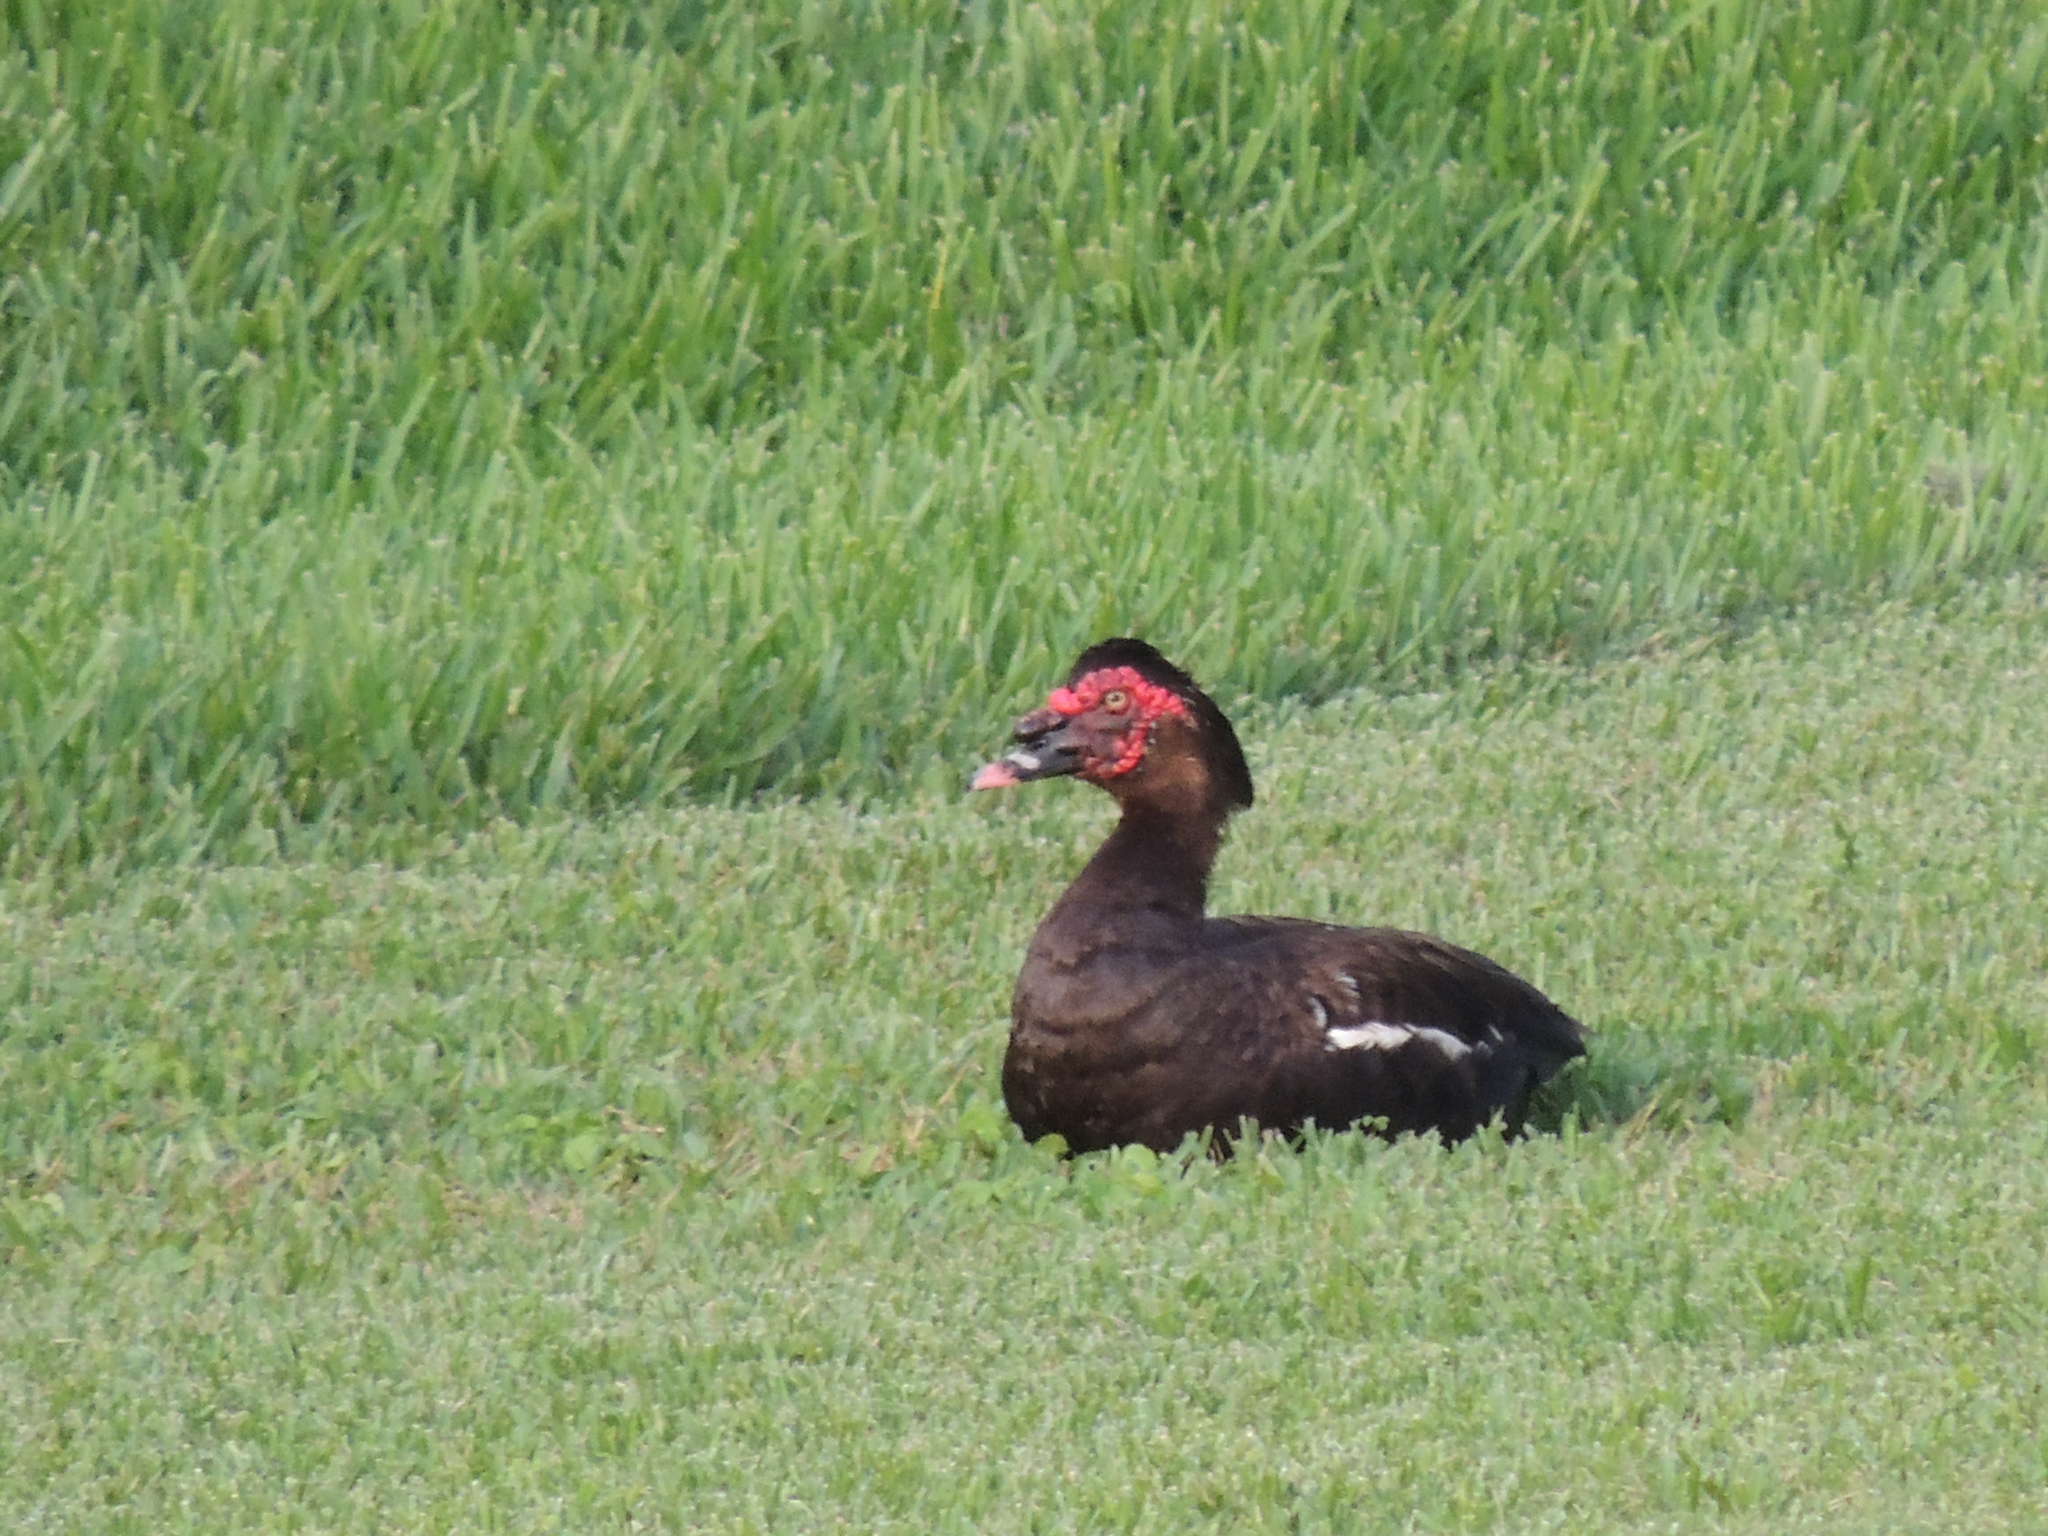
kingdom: Animalia
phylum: Chordata
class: Aves
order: Anseriformes
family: Anatidae
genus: Cairina
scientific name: Cairina moschata
